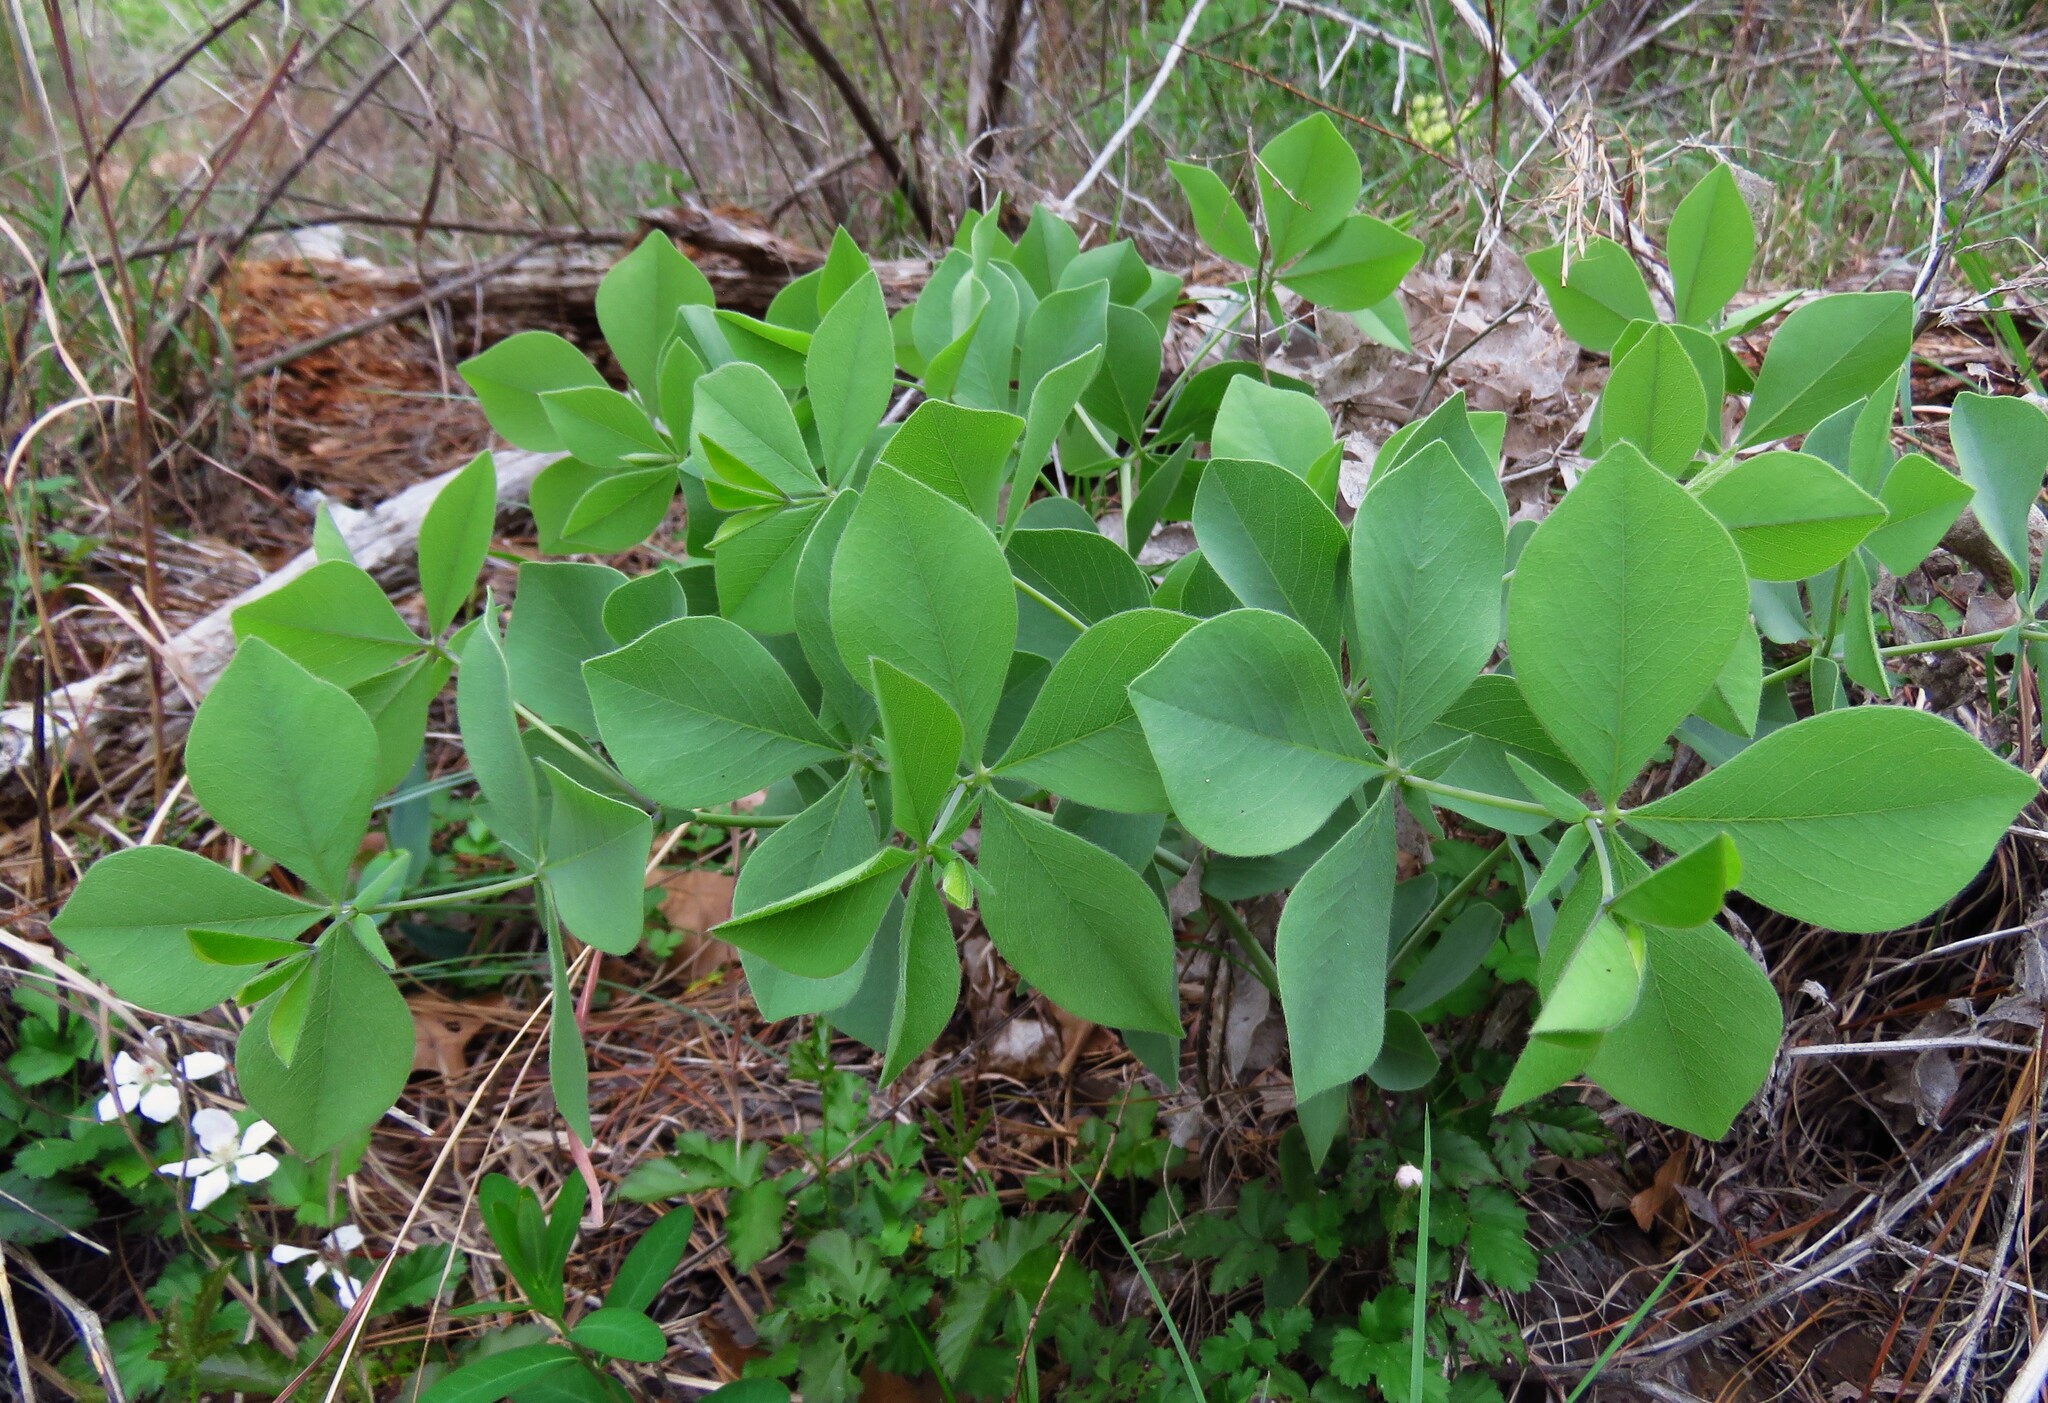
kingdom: Plantae
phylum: Tracheophyta
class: Magnoliopsida
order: Fabales
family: Fabaceae
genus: Baptisia
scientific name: Baptisia bracteata
